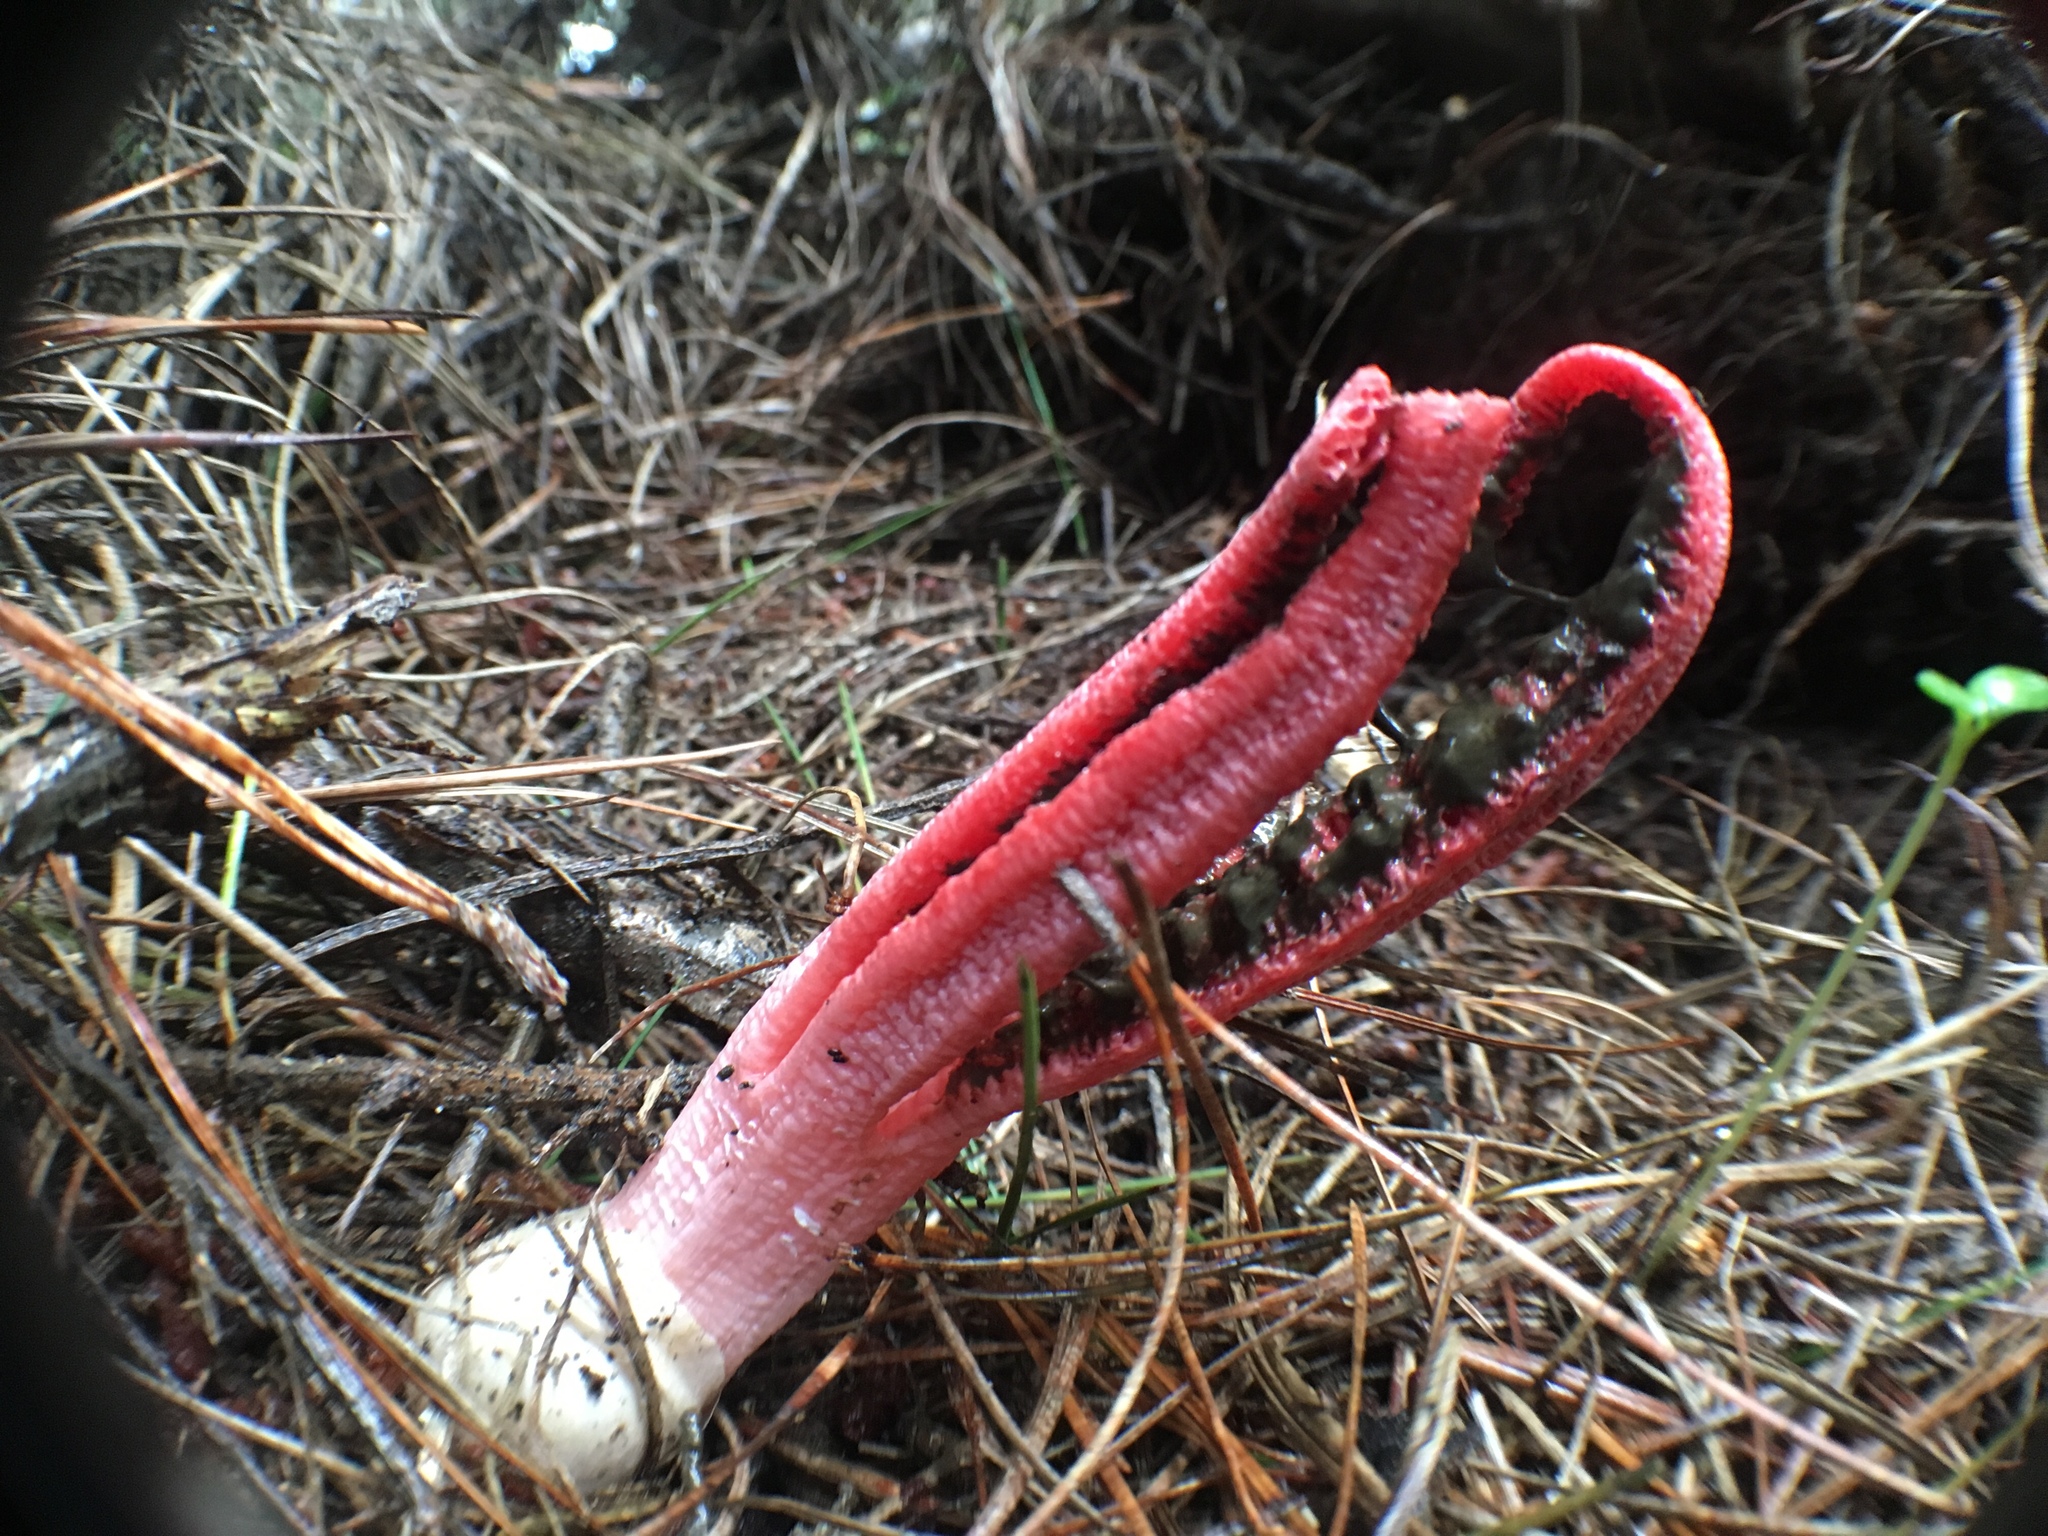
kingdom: Fungi
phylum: Basidiomycota
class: Agaricomycetes
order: Phallales
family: Phallaceae
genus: Clathrus
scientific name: Clathrus archeri
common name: Devil's fingers
